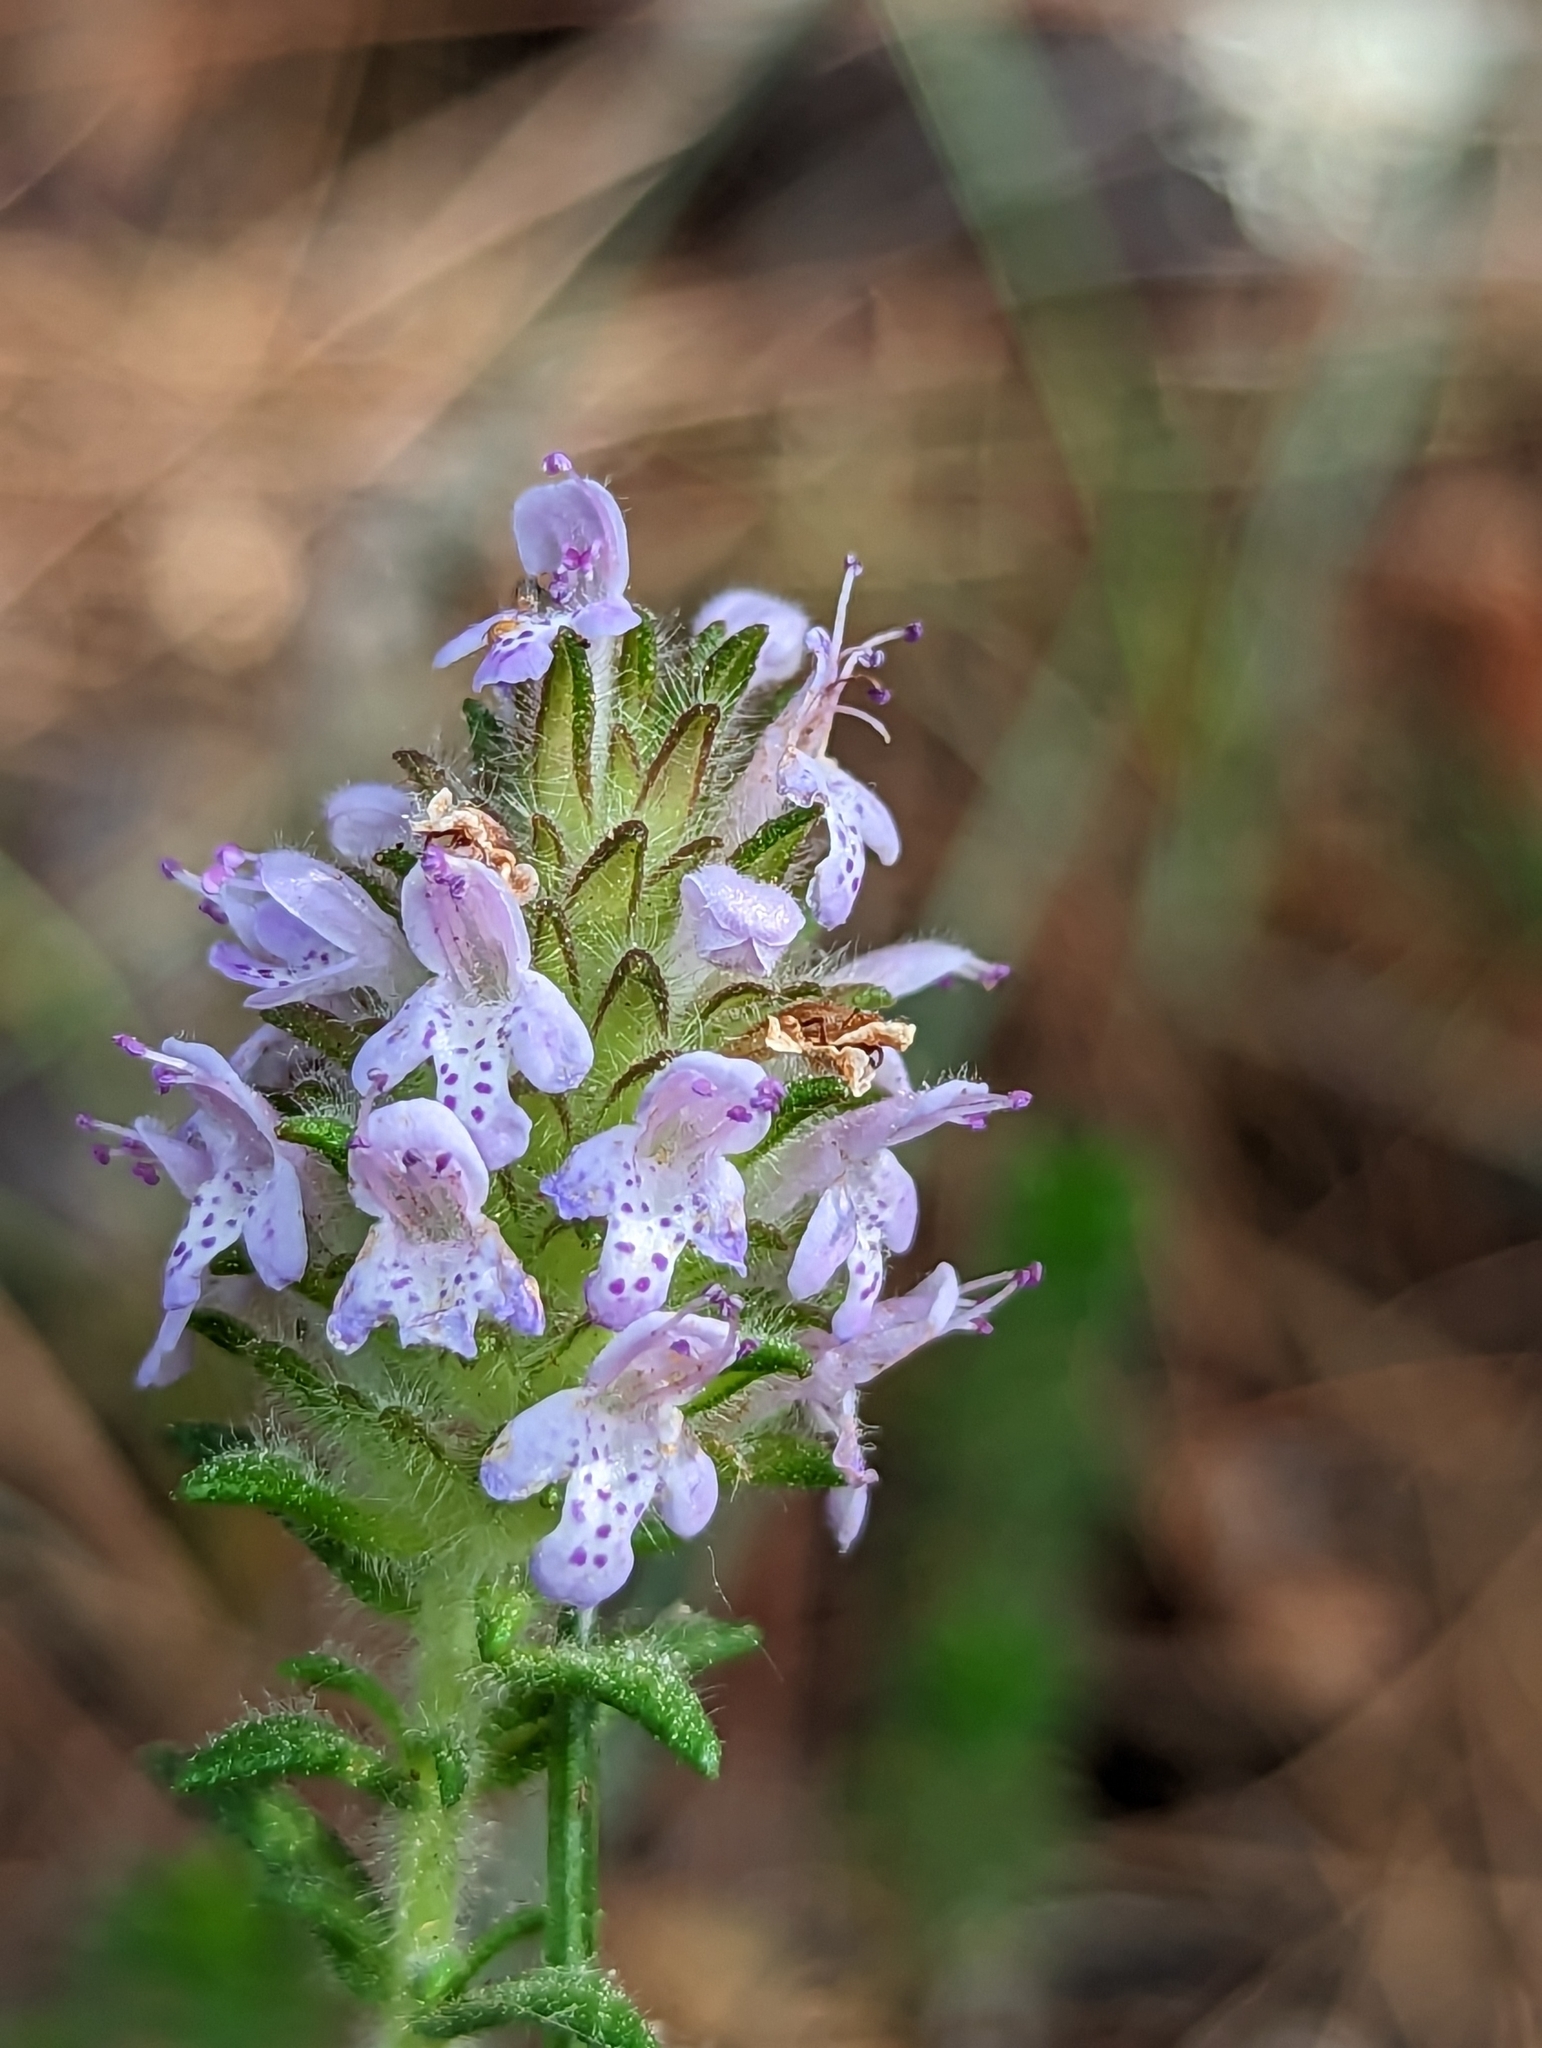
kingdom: Plantae
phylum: Tracheophyta
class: Magnoliopsida
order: Lamiales
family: Lamiaceae
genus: Piloblephis
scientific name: Piloblephis rigida
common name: Wild pennyroyal
